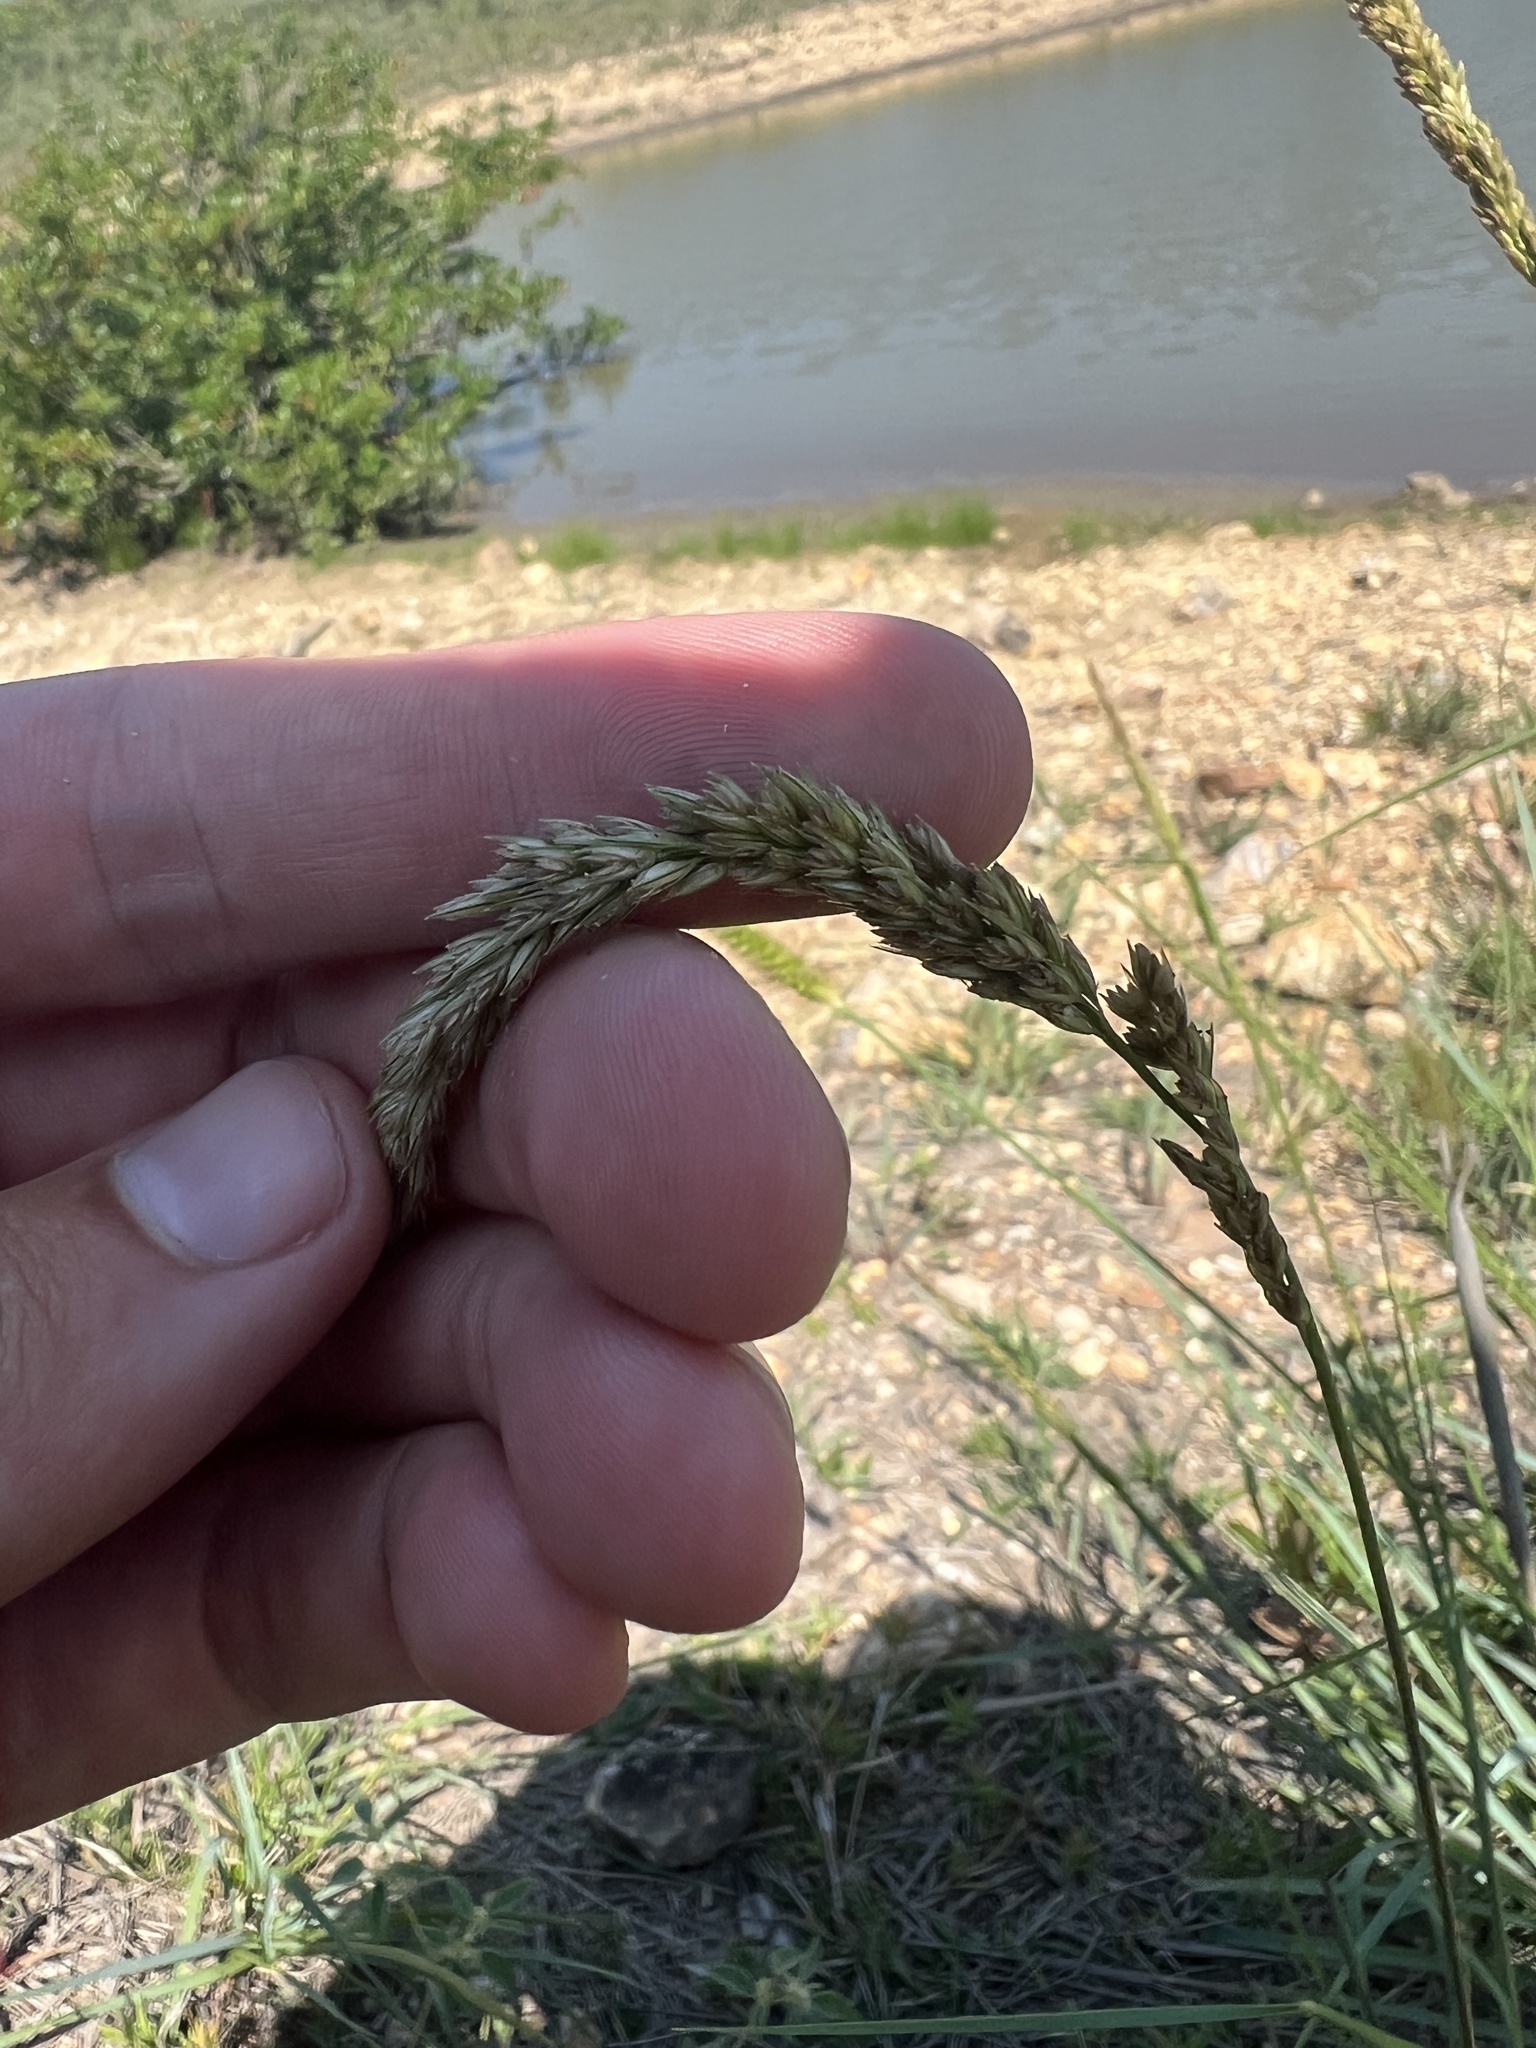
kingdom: Plantae
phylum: Tracheophyta
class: Liliopsida
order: Poales
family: Poaceae
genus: Tridens
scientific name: Tridens strictus
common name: Long-spike tridens
